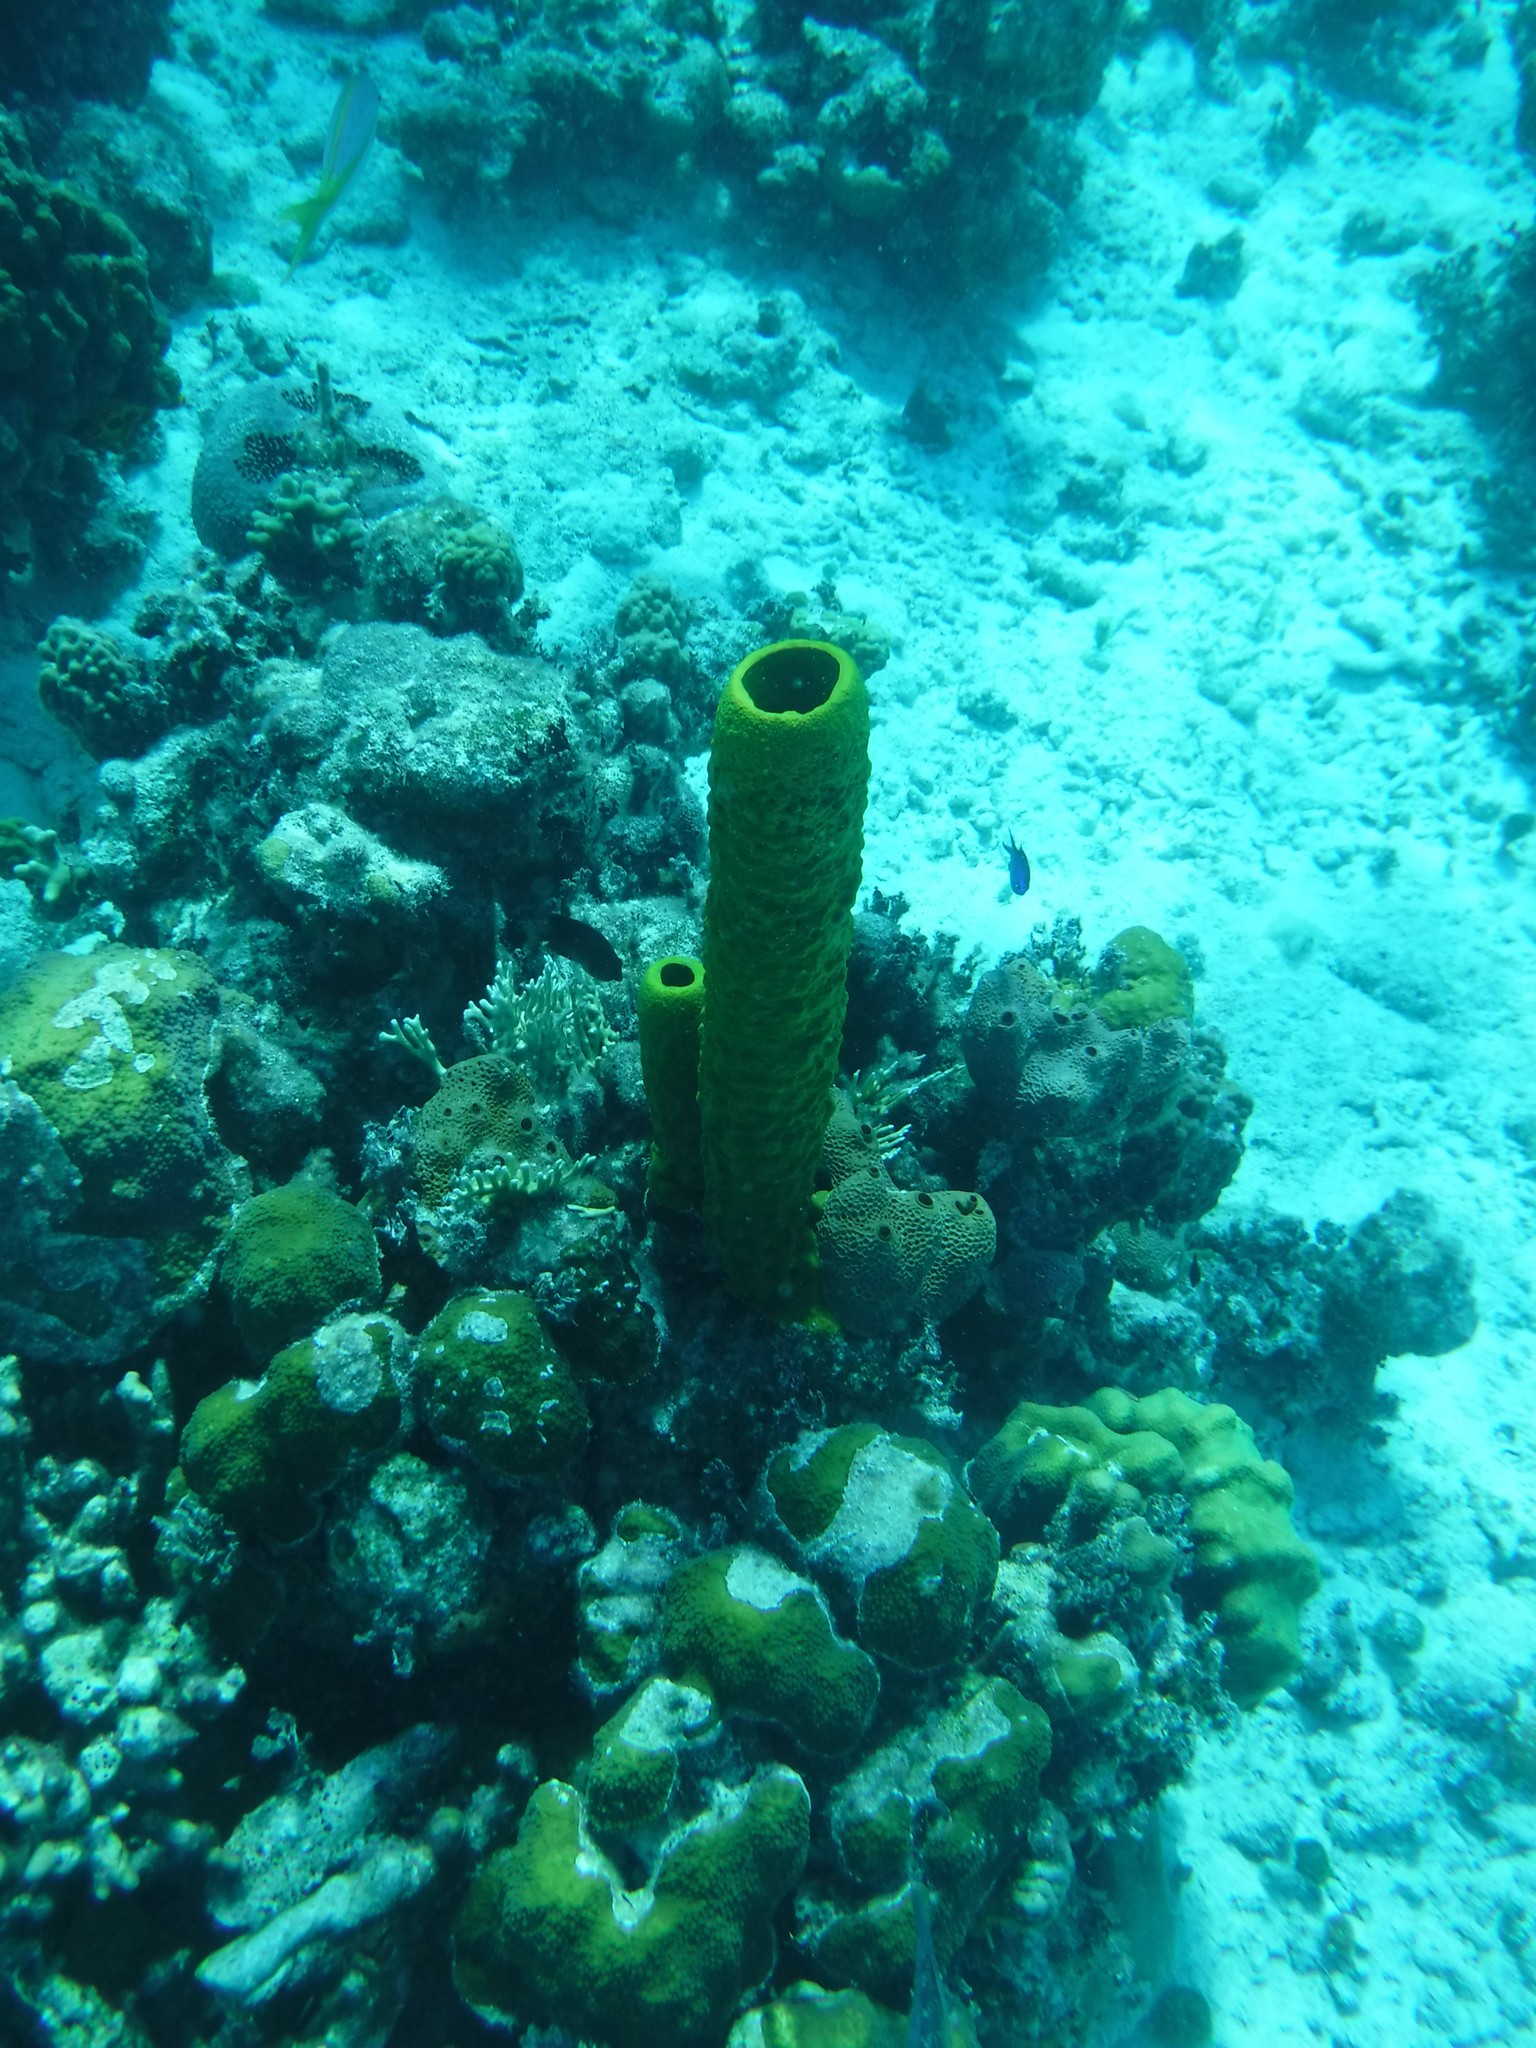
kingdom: Animalia
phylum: Porifera
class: Demospongiae
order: Verongiida
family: Aplysinidae
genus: Aplysina
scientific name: Aplysina fistularis
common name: Candle sponge
